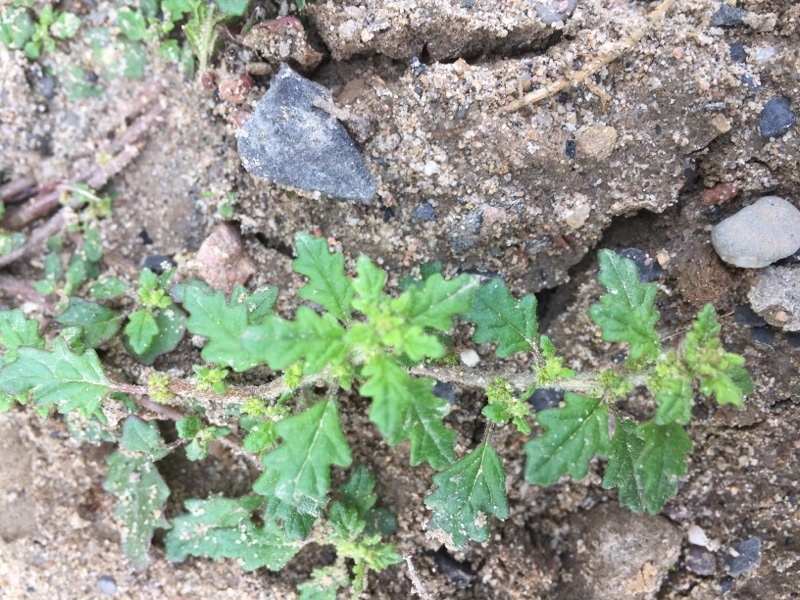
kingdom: Plantae
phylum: Tracheophyta
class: Magnoliopsida
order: Caryophyllales
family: Amaranthaceae
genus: Dysphania
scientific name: Dysphania pumilio
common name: Clammy goosefoot
